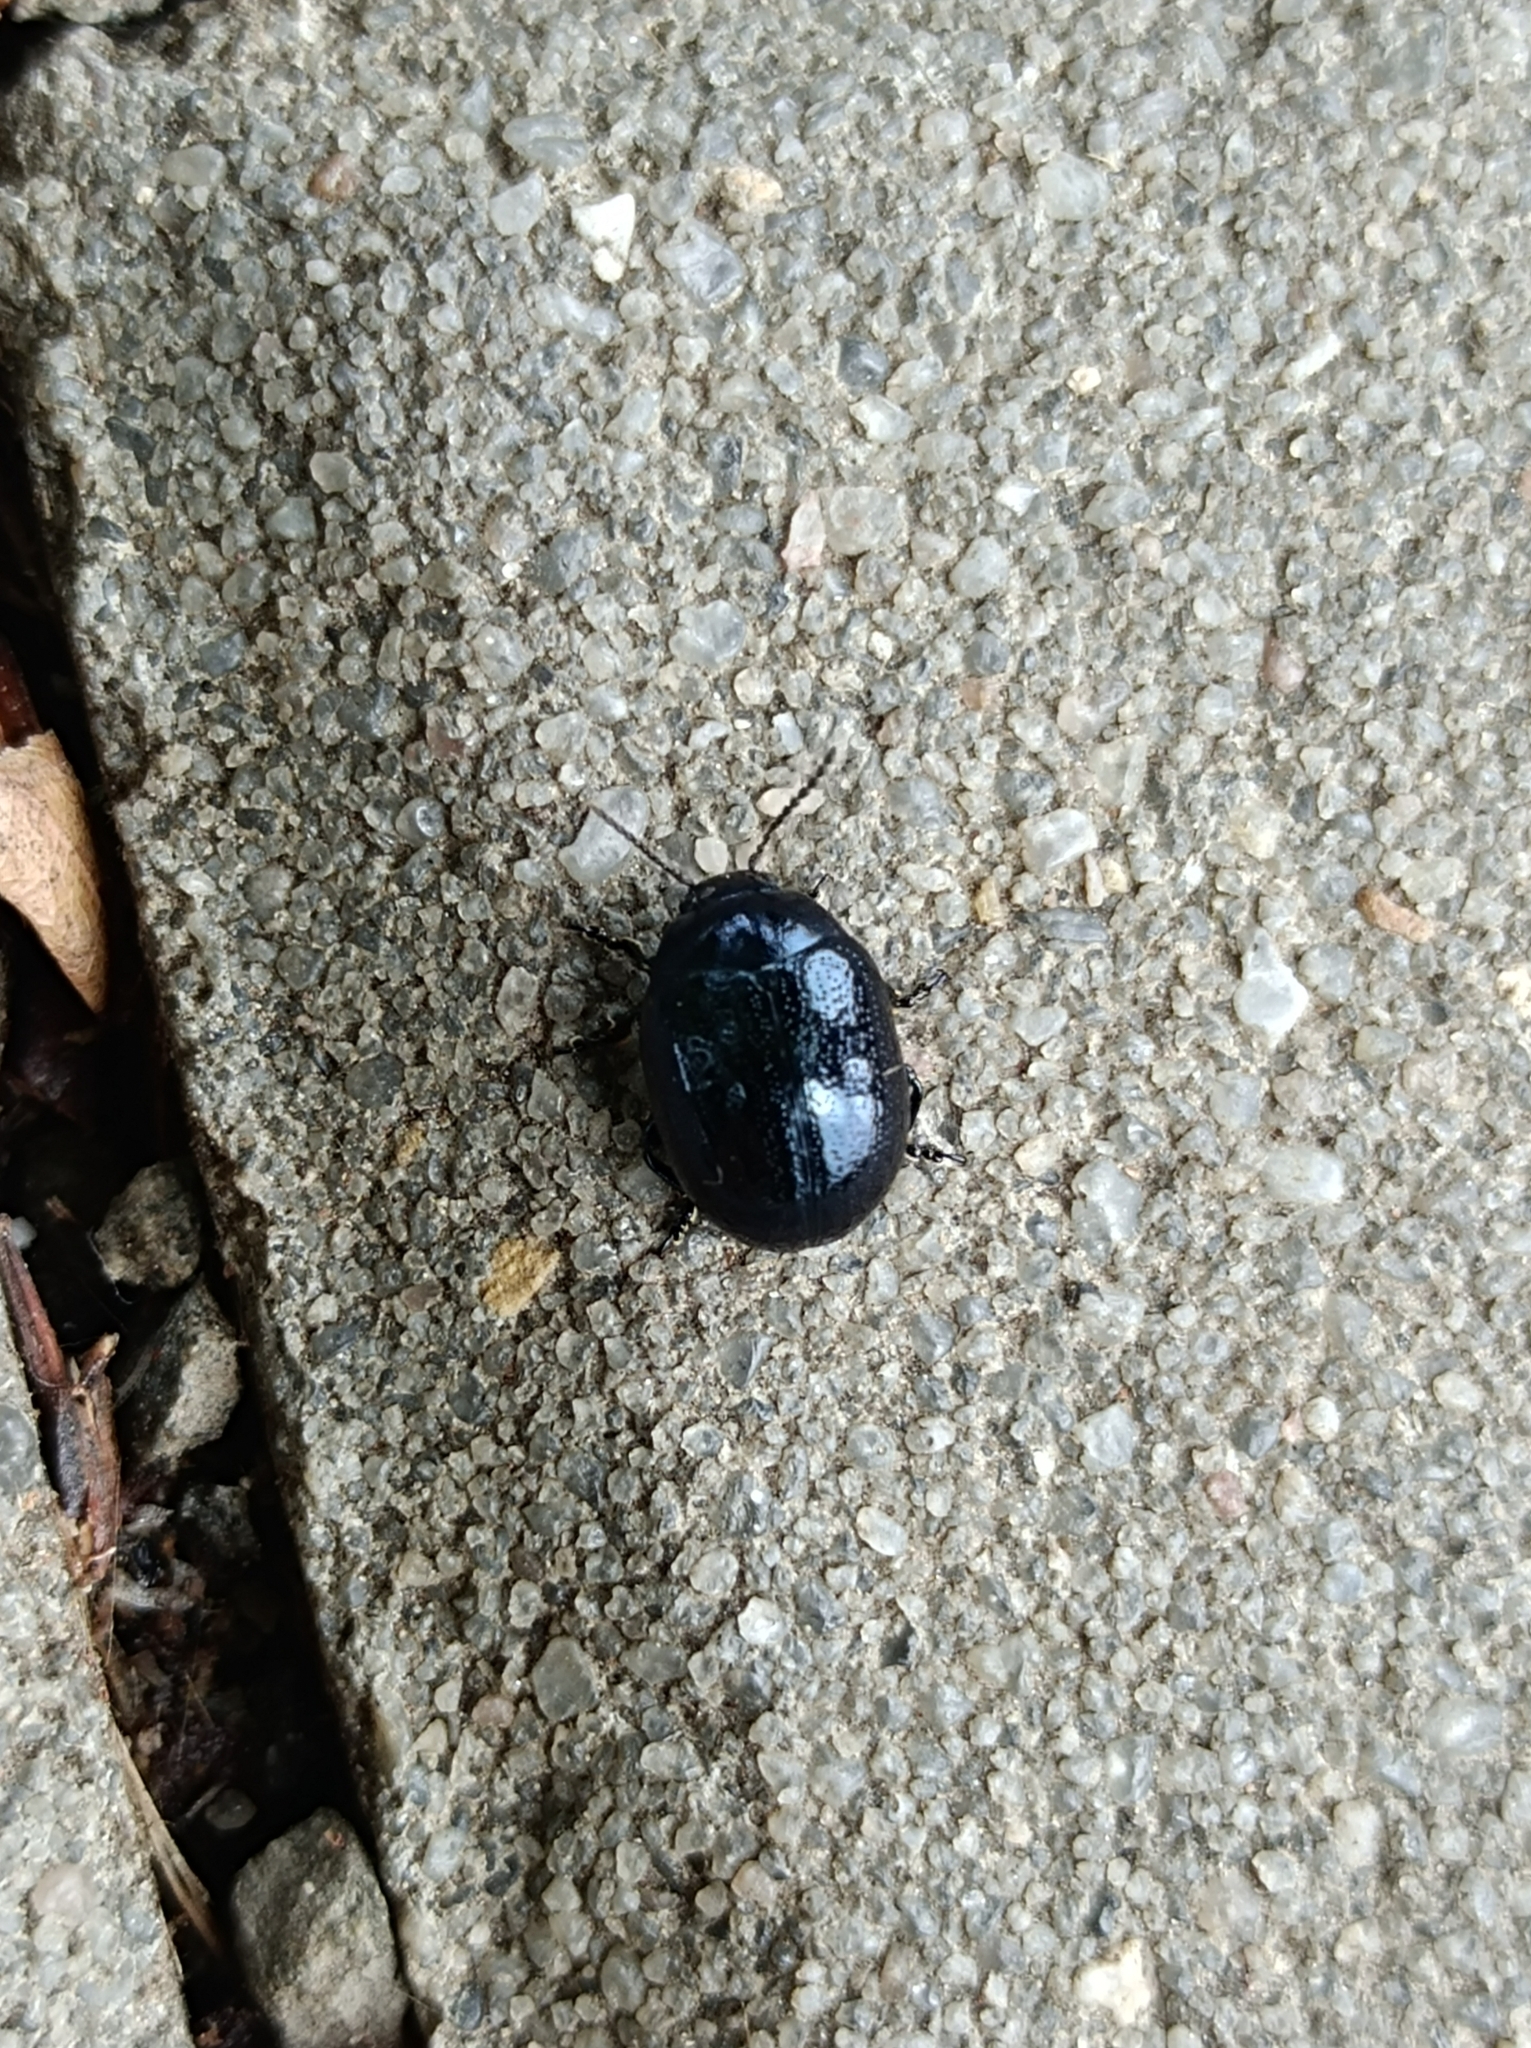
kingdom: Animalia
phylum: Arthropoda
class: Insecta
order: Coleoptera
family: Chrysomelidae
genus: Chrysolina
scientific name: Chrysolina haemoptera
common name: Plantain leaf beetle
